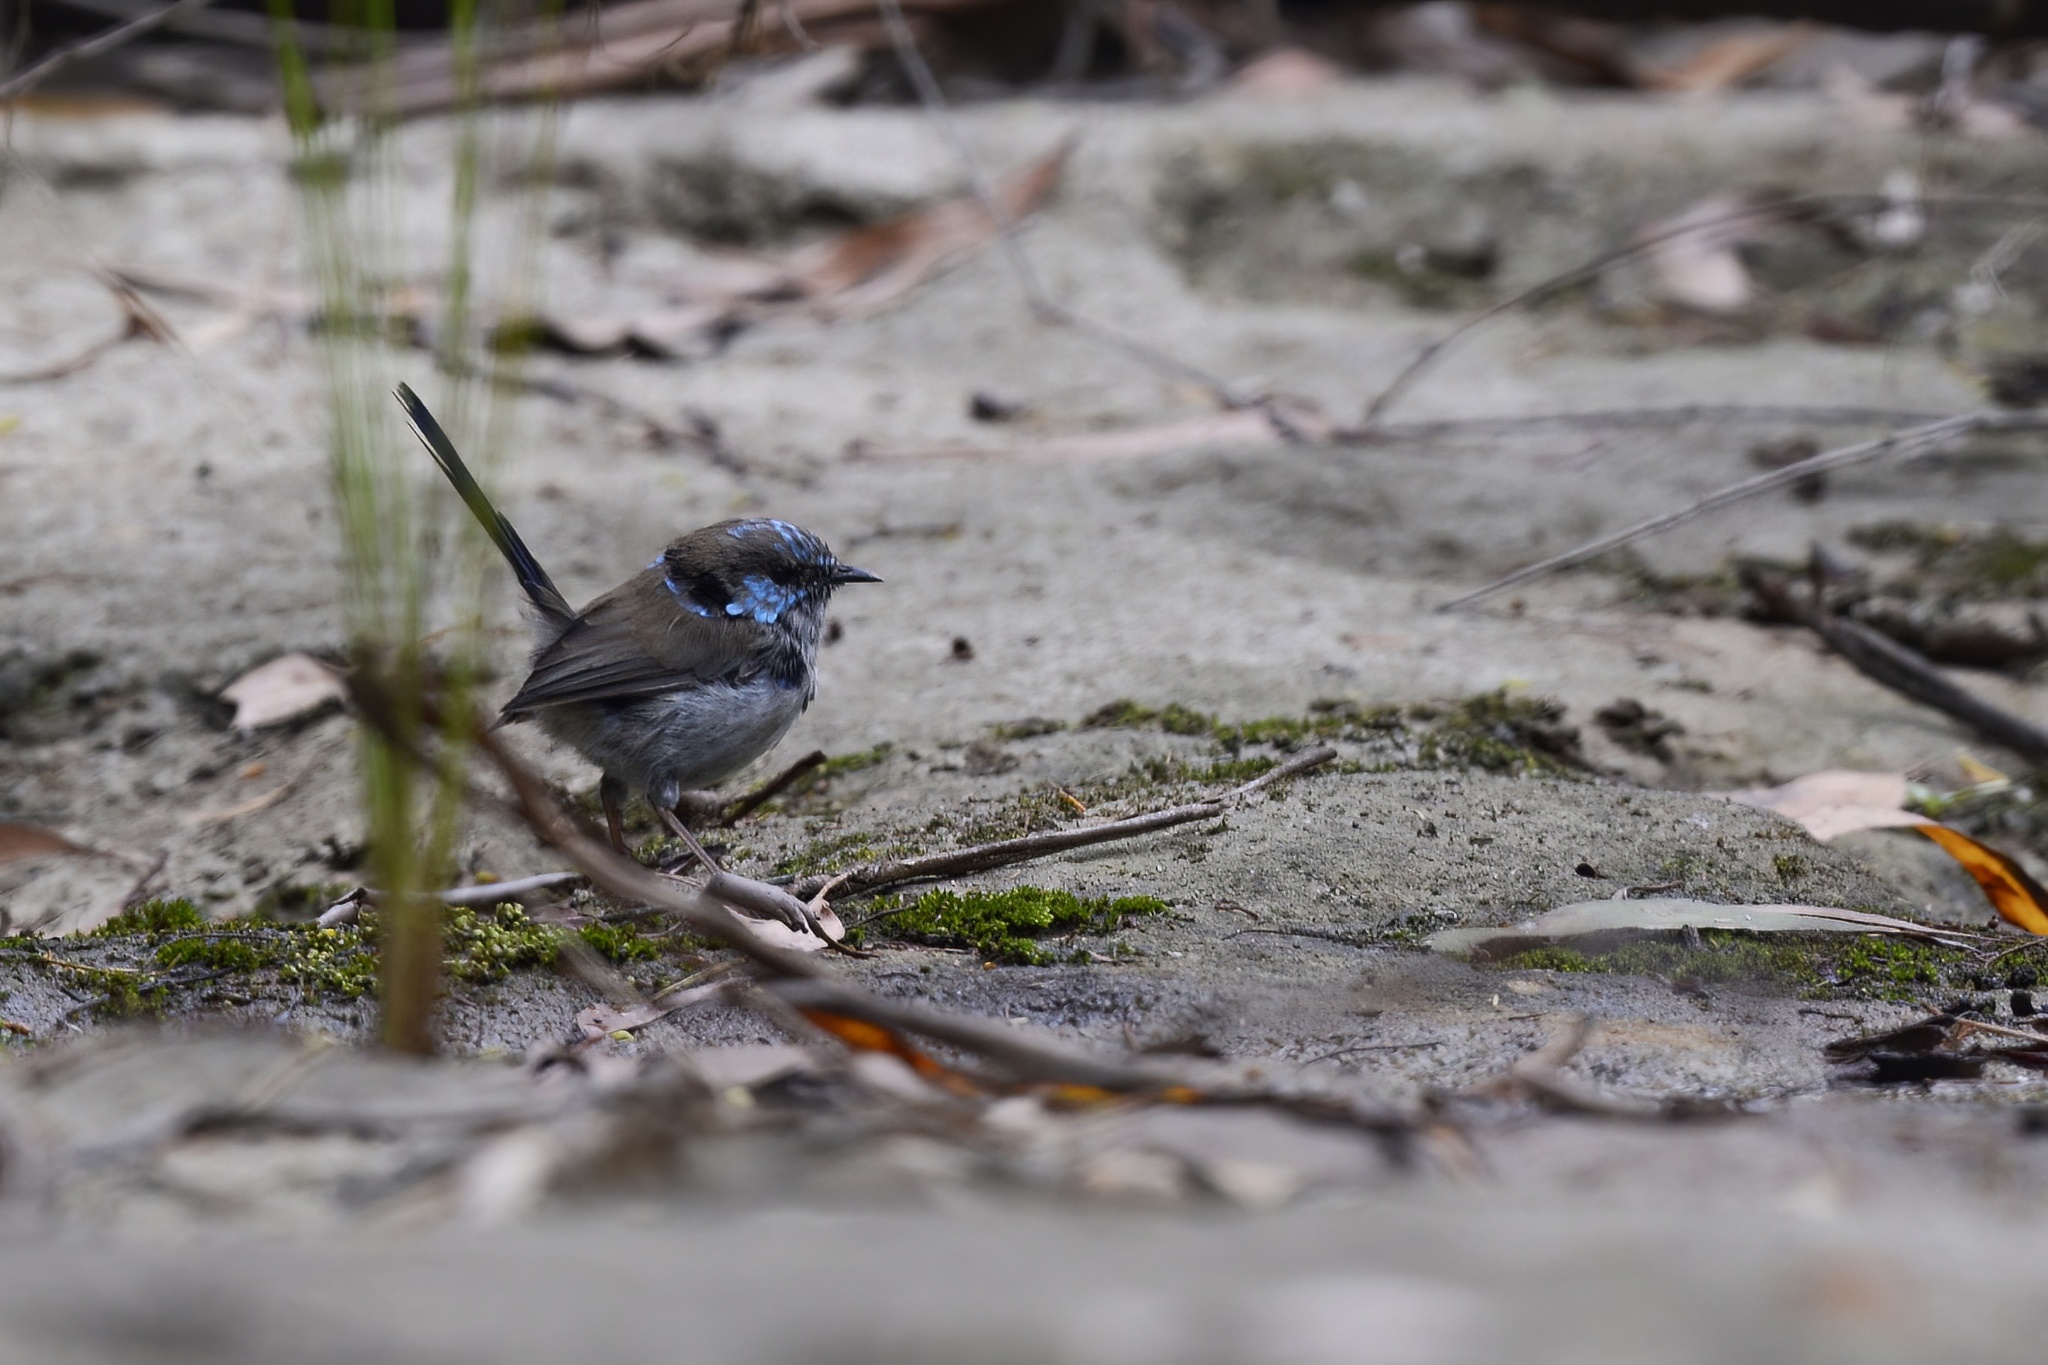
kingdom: Animalia
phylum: Chordata
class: Aves
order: Passeriformes
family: Maluridae
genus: Malurus
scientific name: Malurus cyaneus
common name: Superb fairywren
